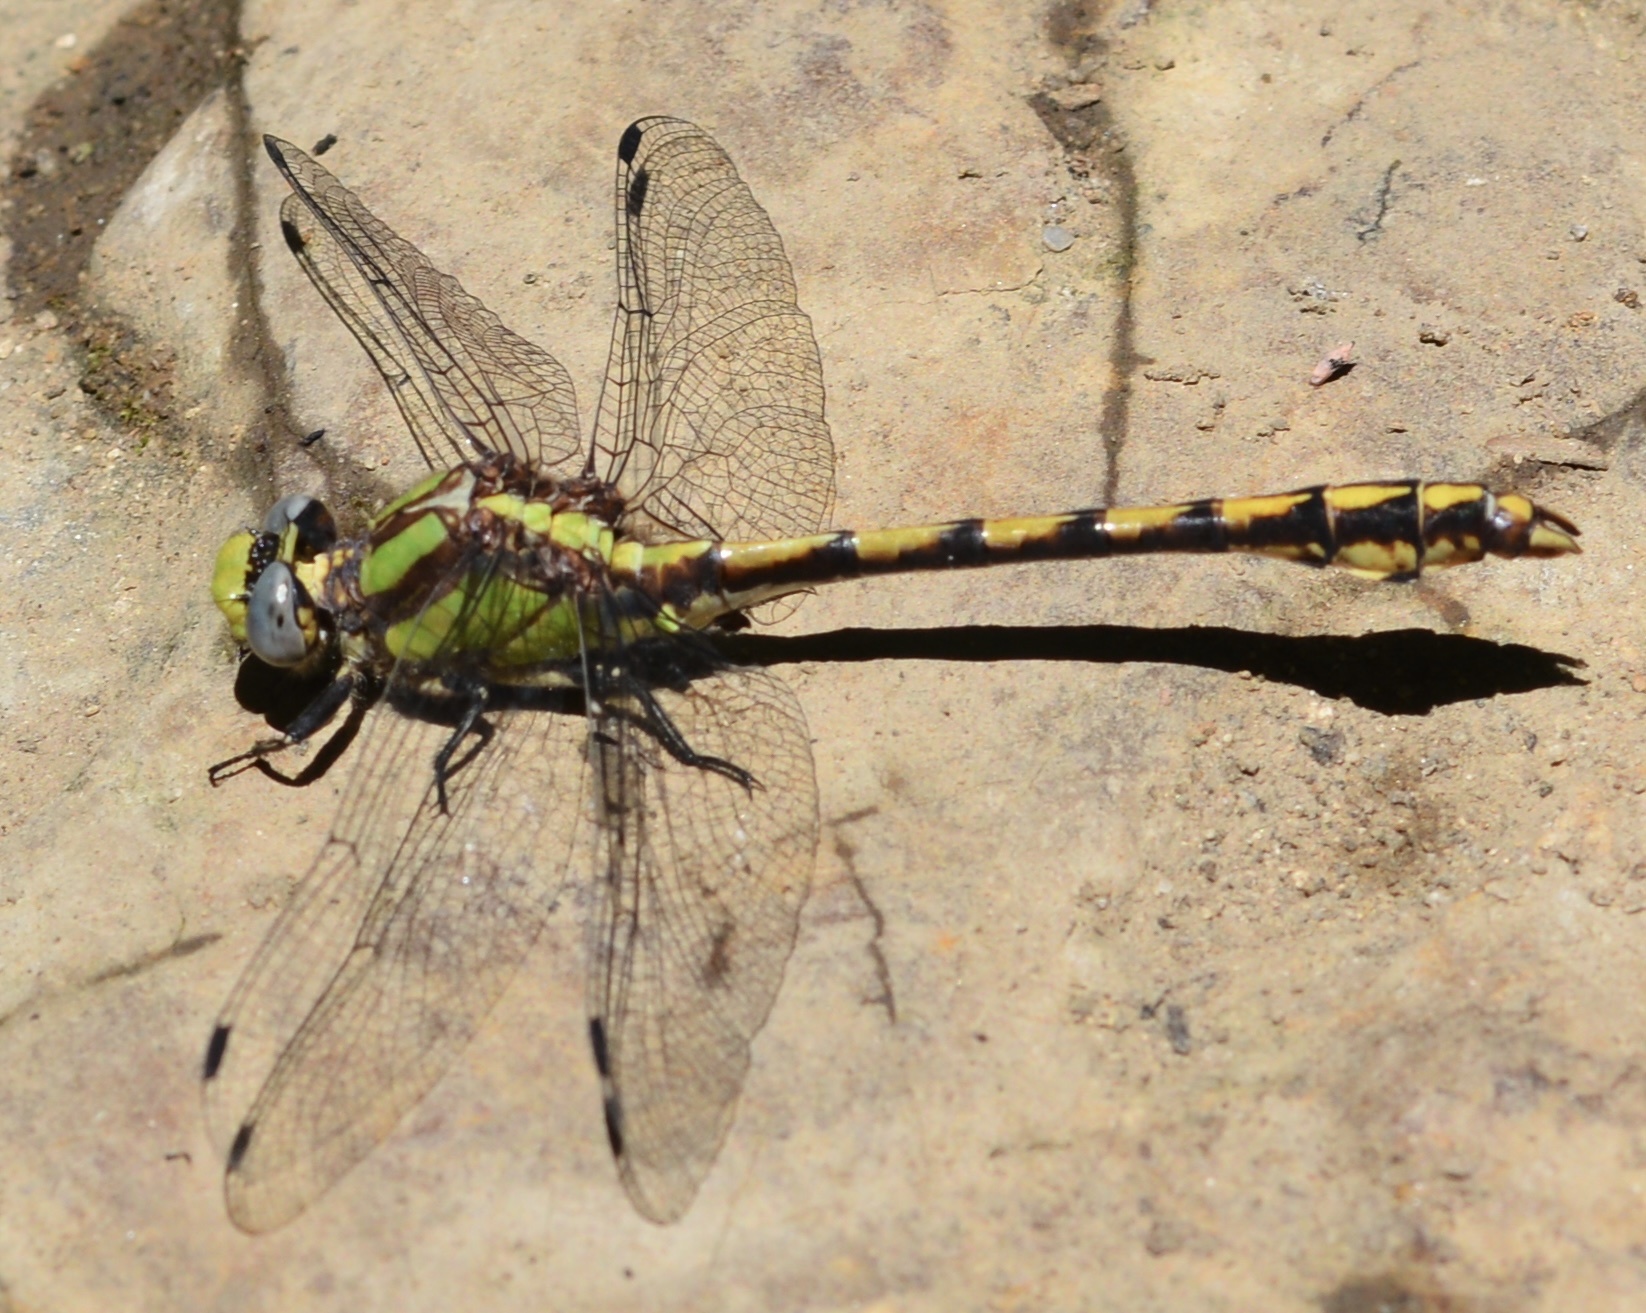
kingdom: Animalia
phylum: Arthropoda
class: Insecta
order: Odonata
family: Gomphidae
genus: Ophiogomphus
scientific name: Ophiogomphus bison
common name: Bison snaketail
